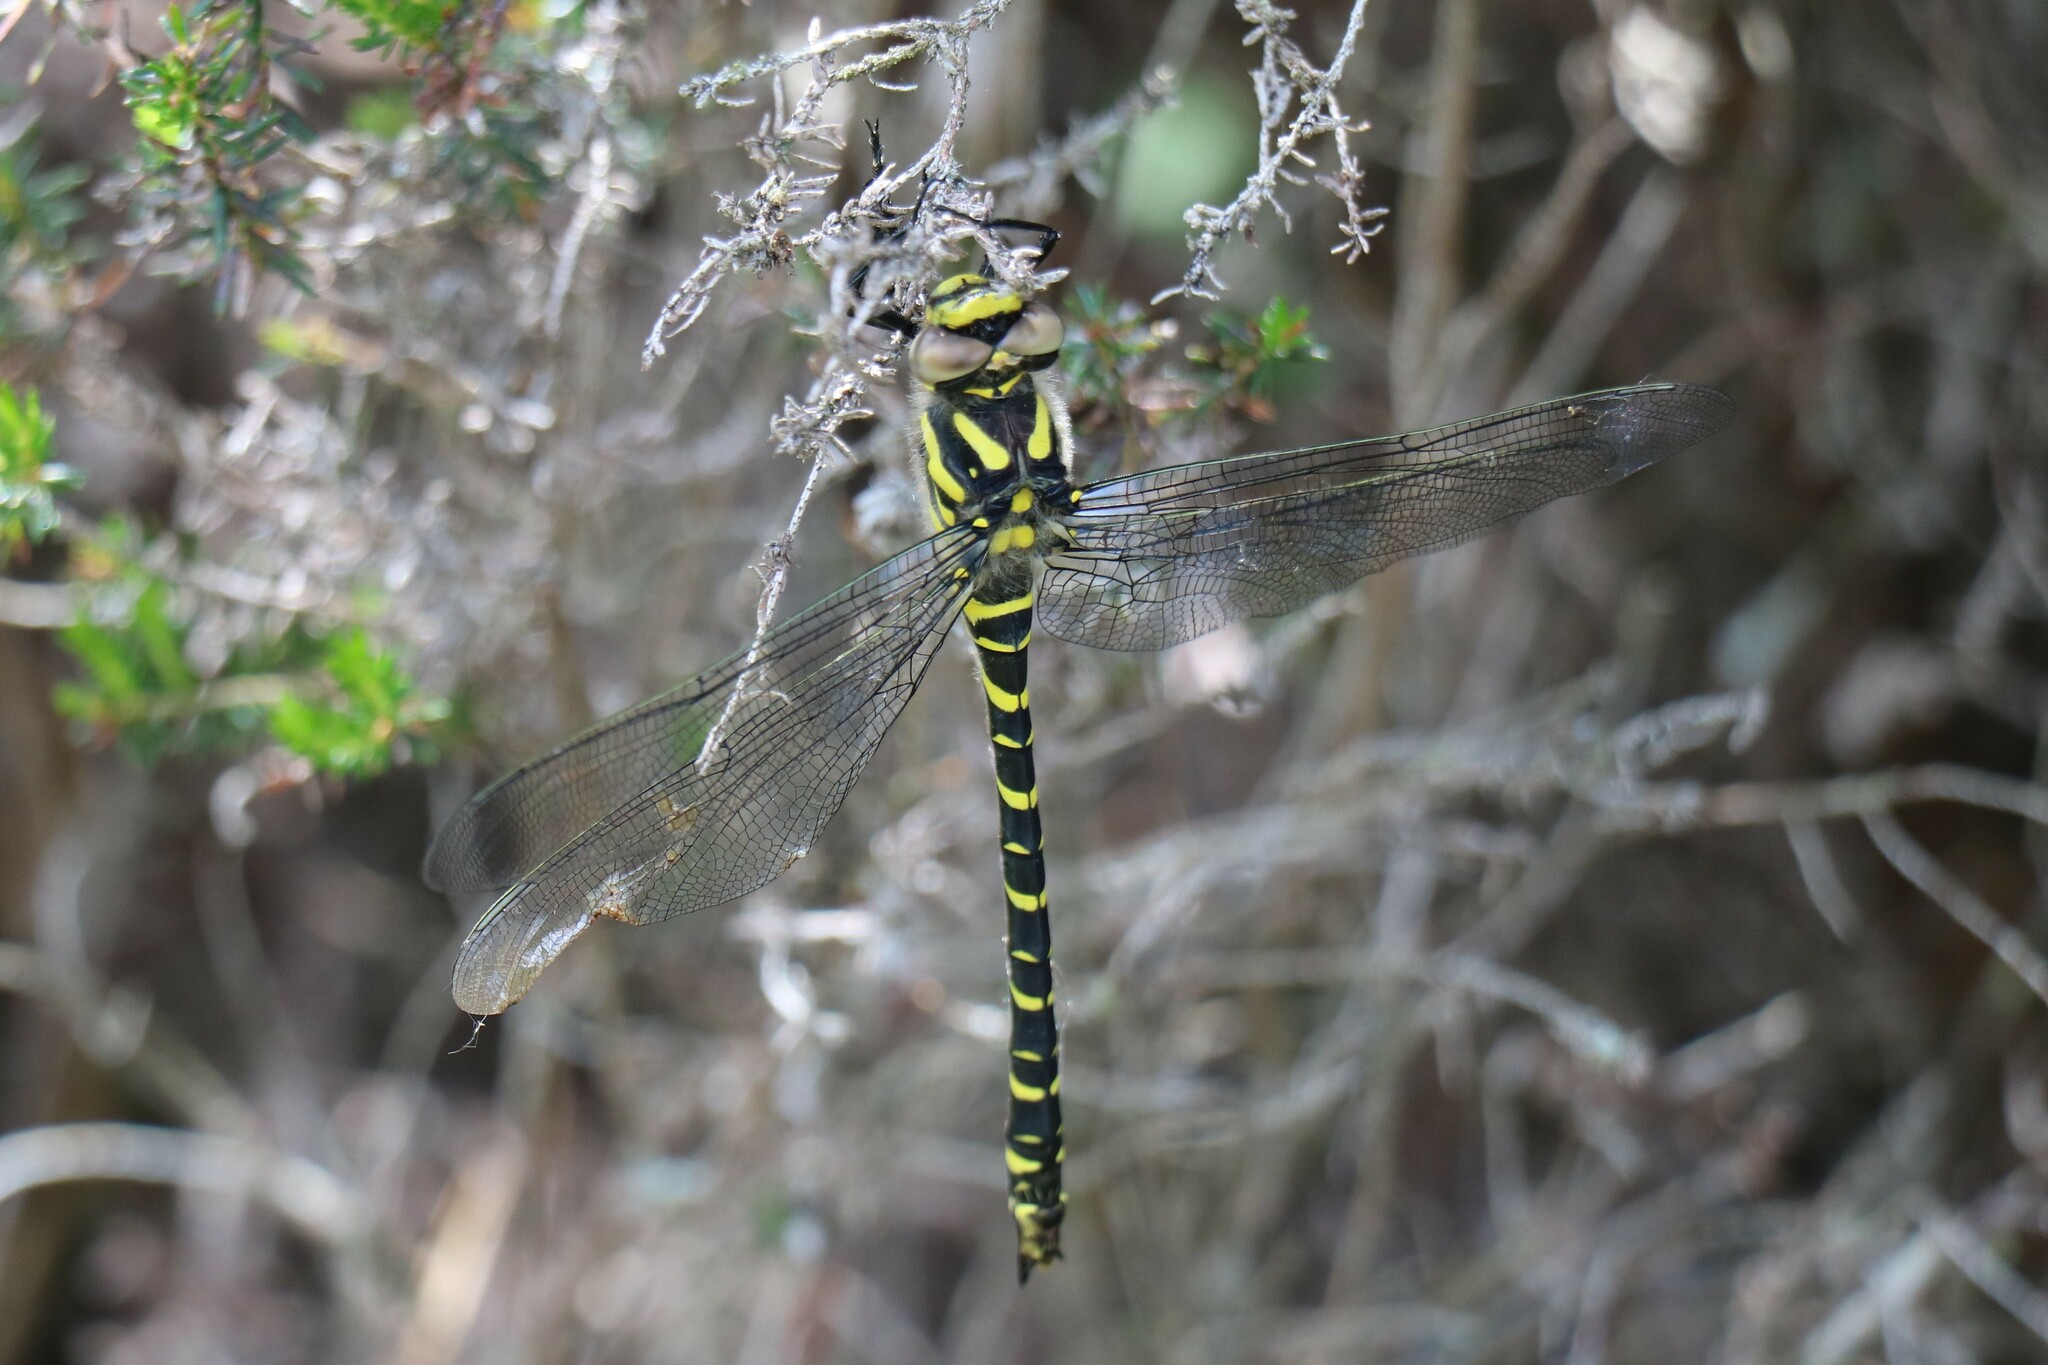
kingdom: Animalia
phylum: Arthropoda
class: Insecta
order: Odonata
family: Cordulegastridae
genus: Cordulegaster
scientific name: Cordulegaster boltonii
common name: Golden-ringed dragonfly
